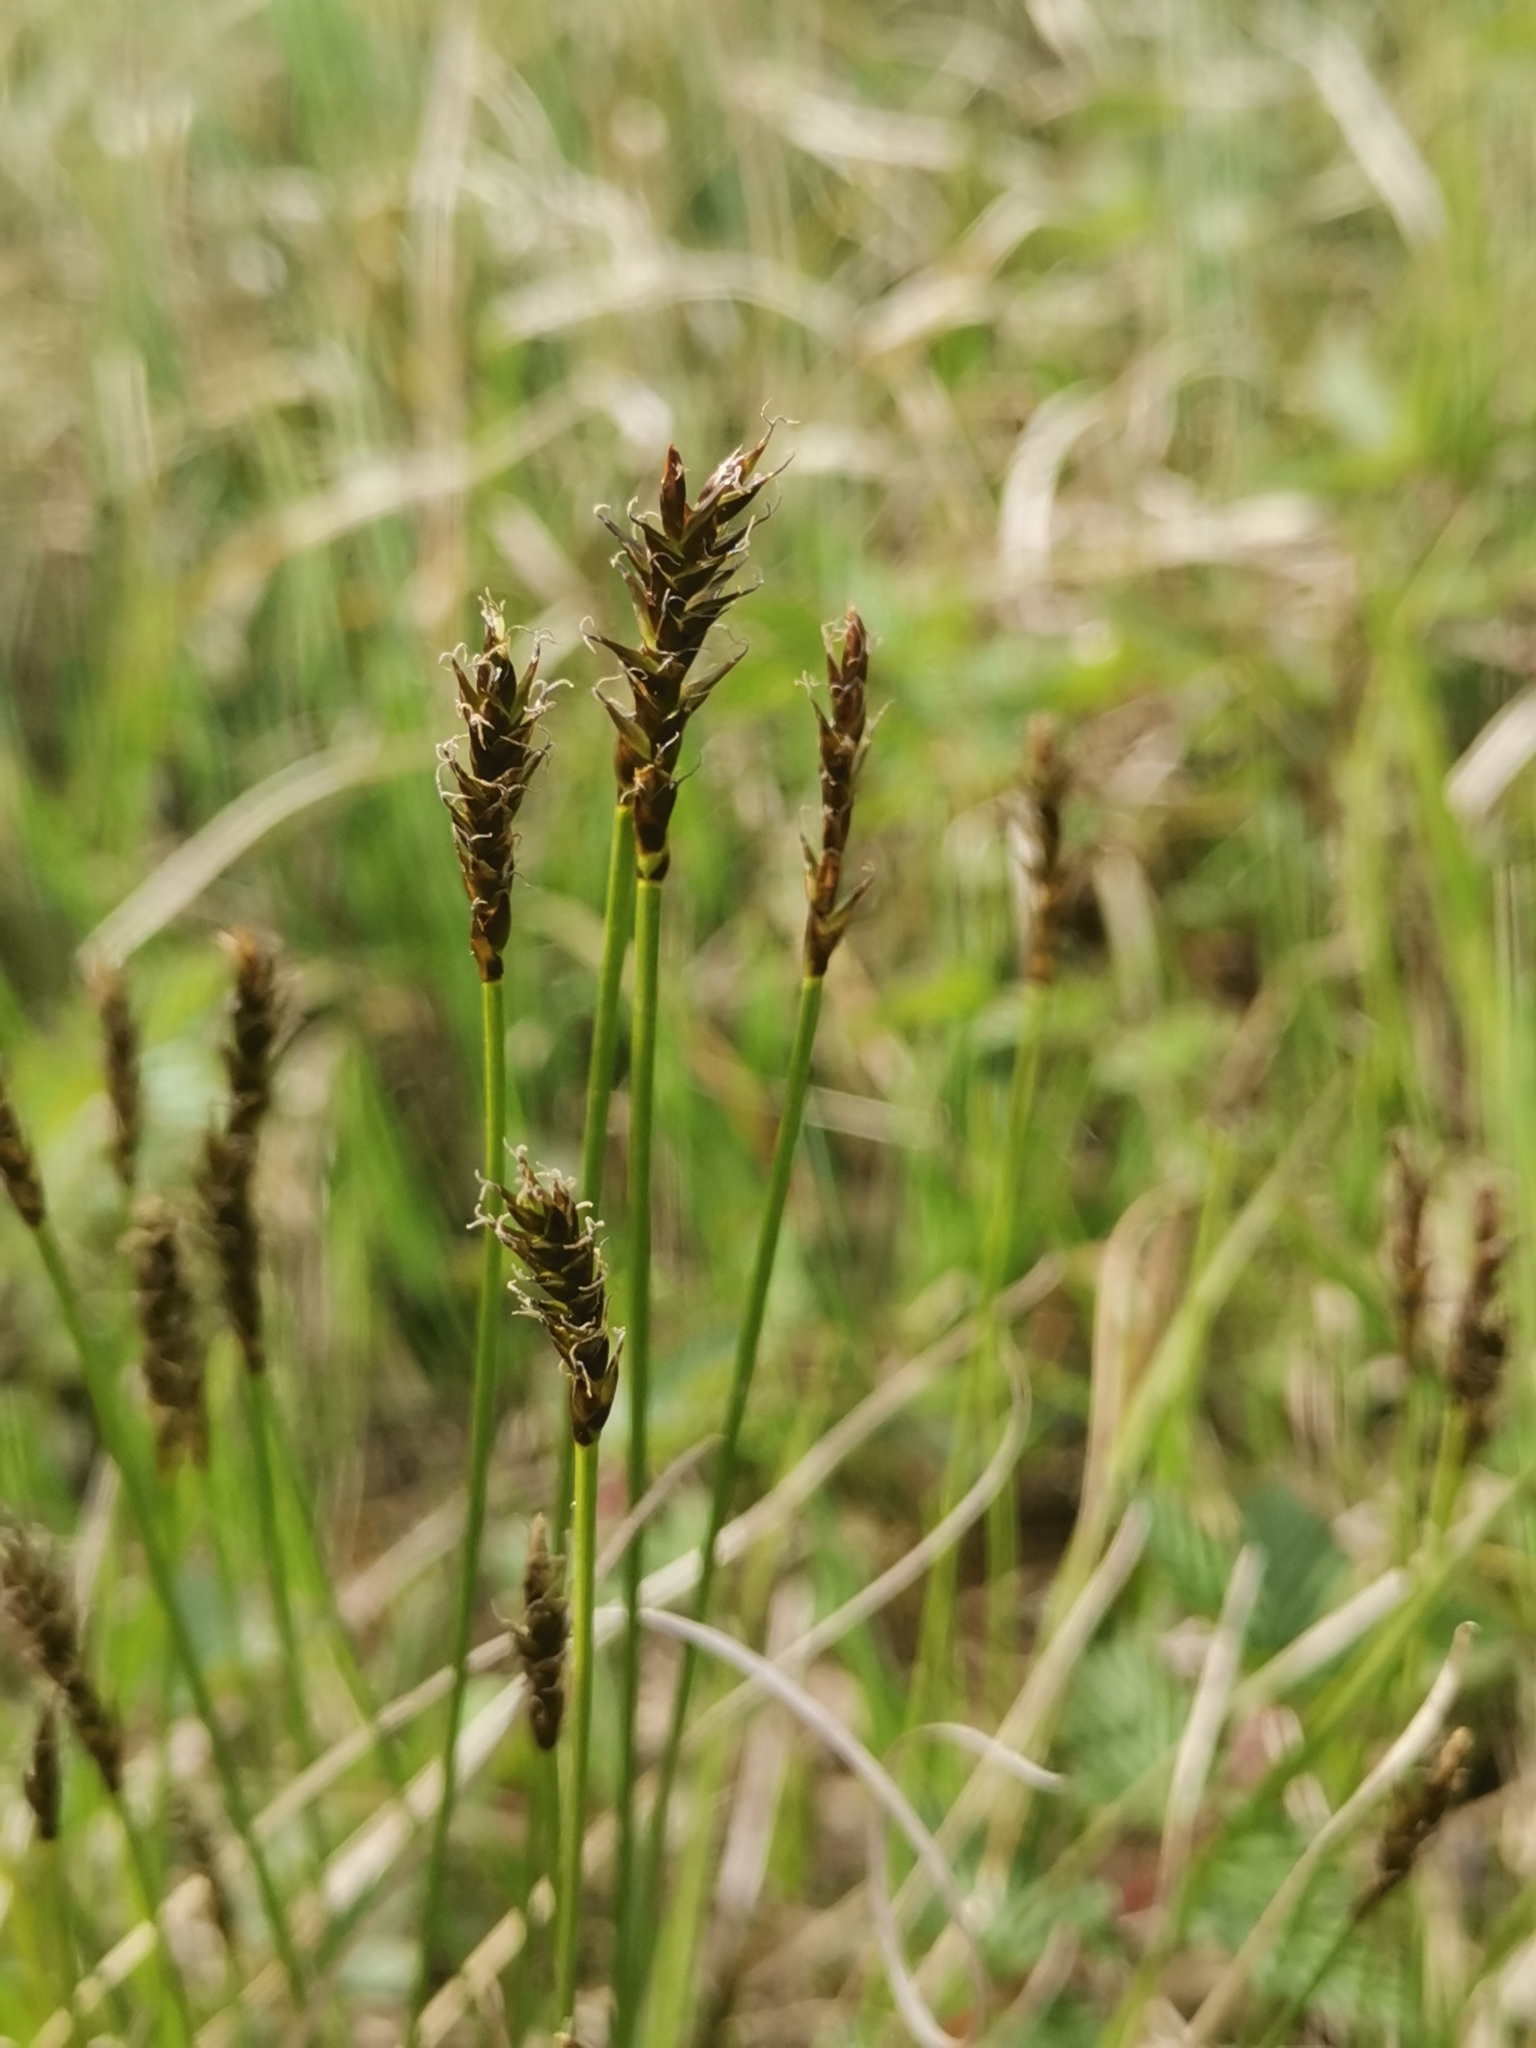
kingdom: Plantae
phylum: Tracheophyta
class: Liliopsida
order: Poales
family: Cyperaceae
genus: Carex
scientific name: Carex davalliana
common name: Davall's sedge
